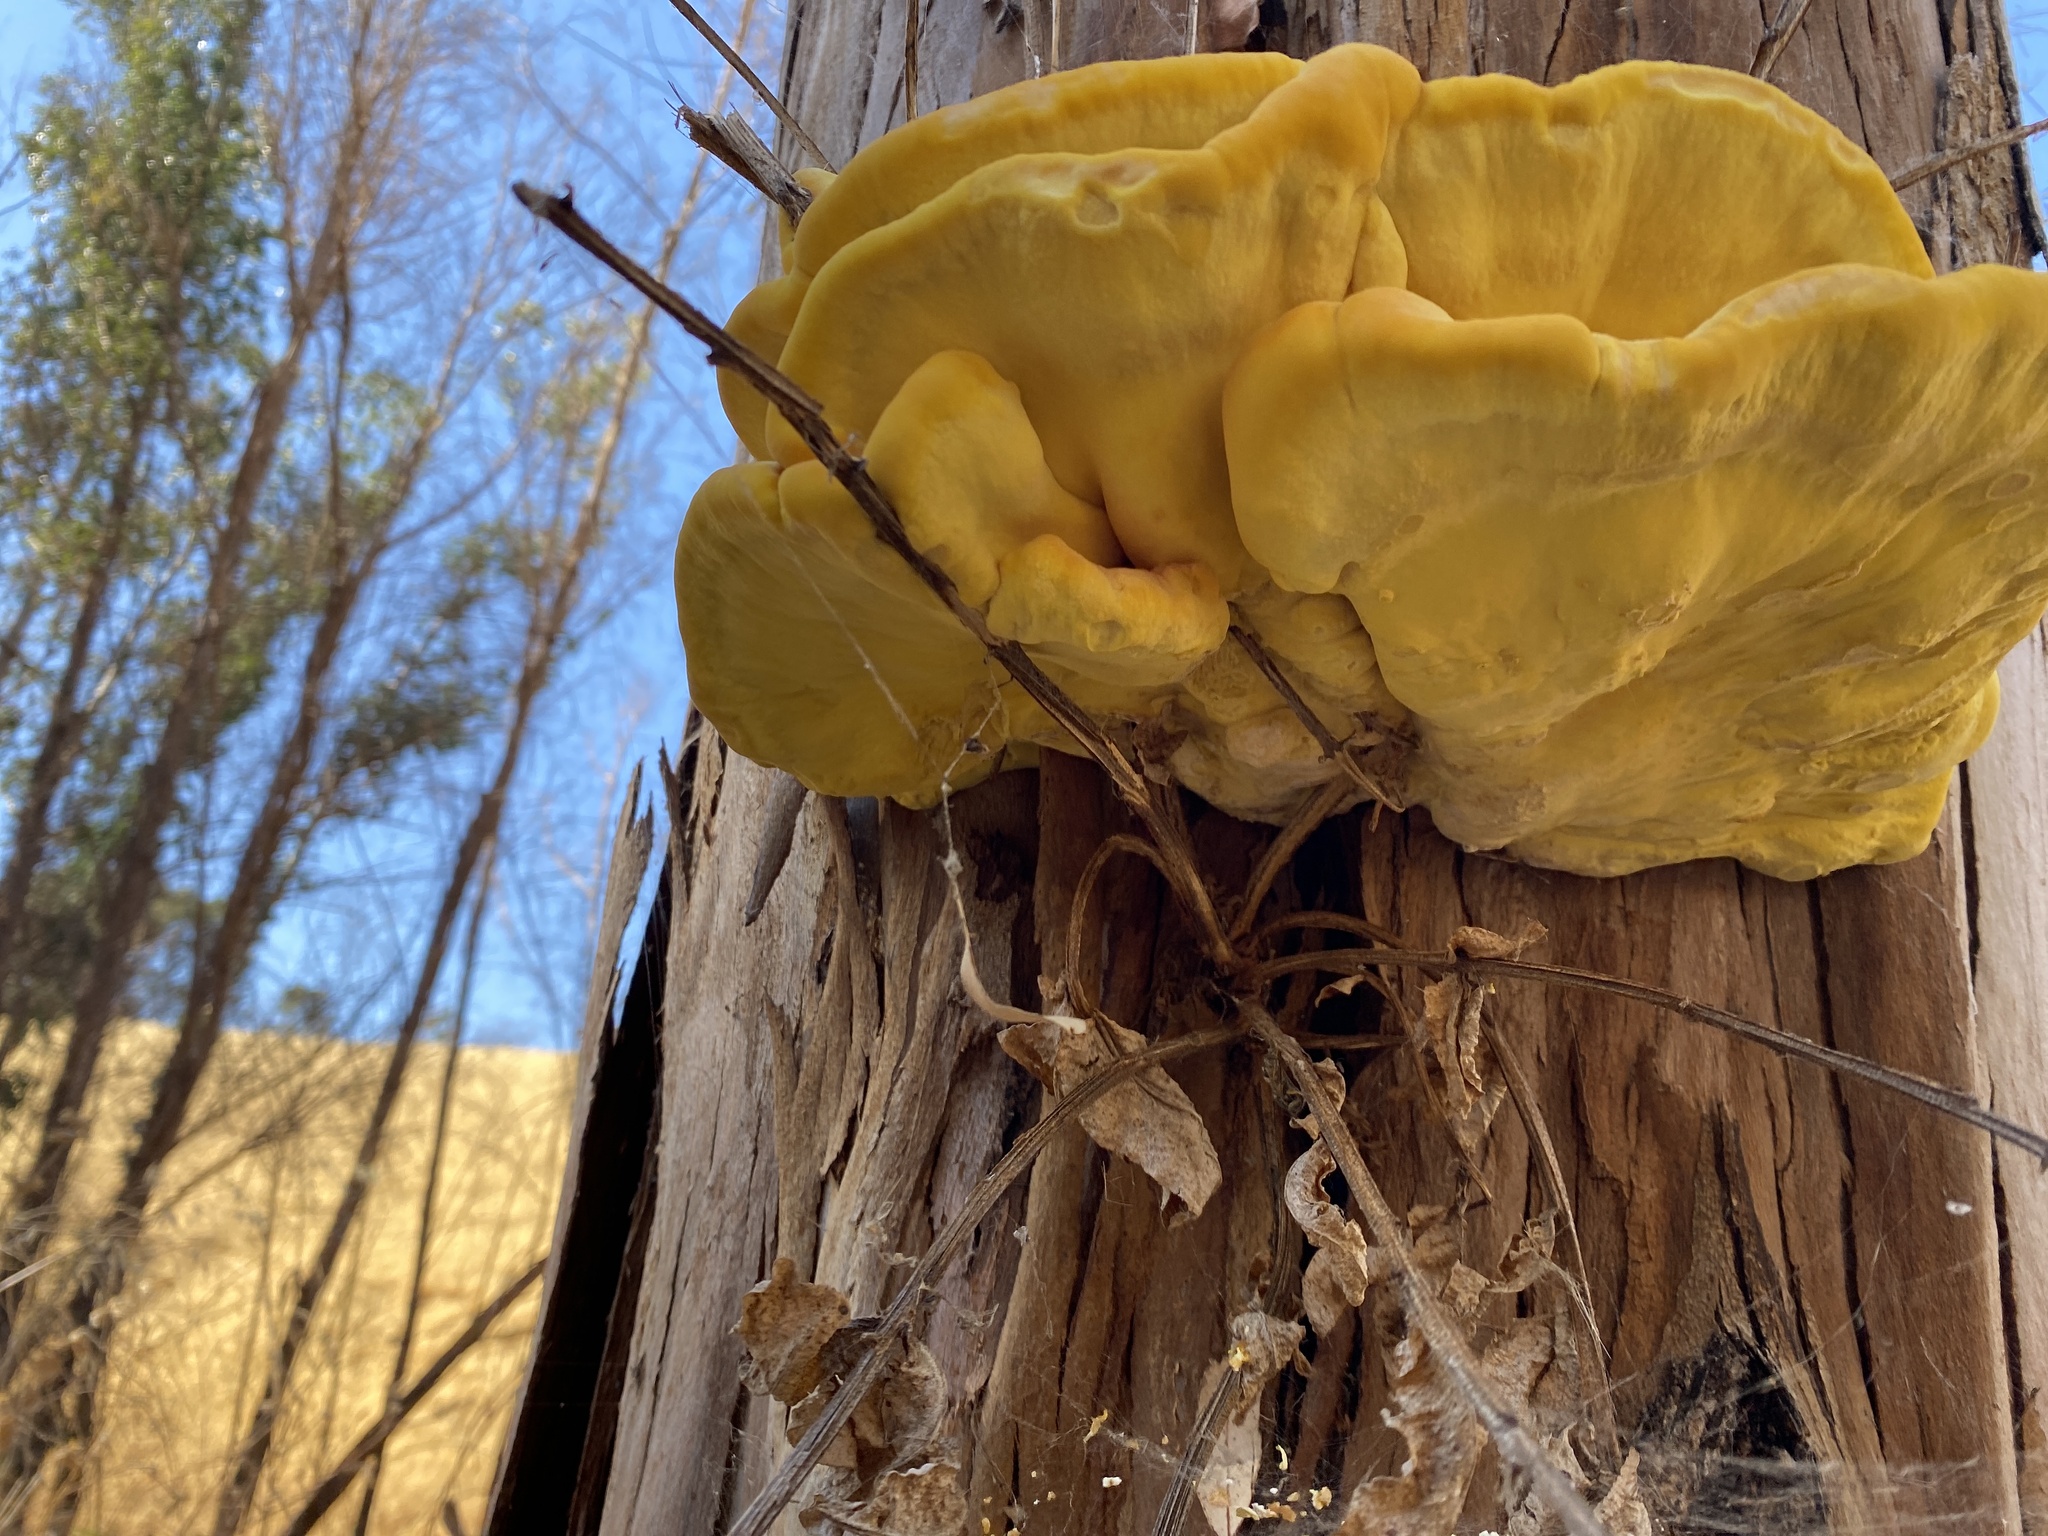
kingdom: Fungi
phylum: Basidiomycota
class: Agaricomycetes
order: Polyporales
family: Laetiporaceae
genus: Laetiporus
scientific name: Laetiporus gilbertsonii
